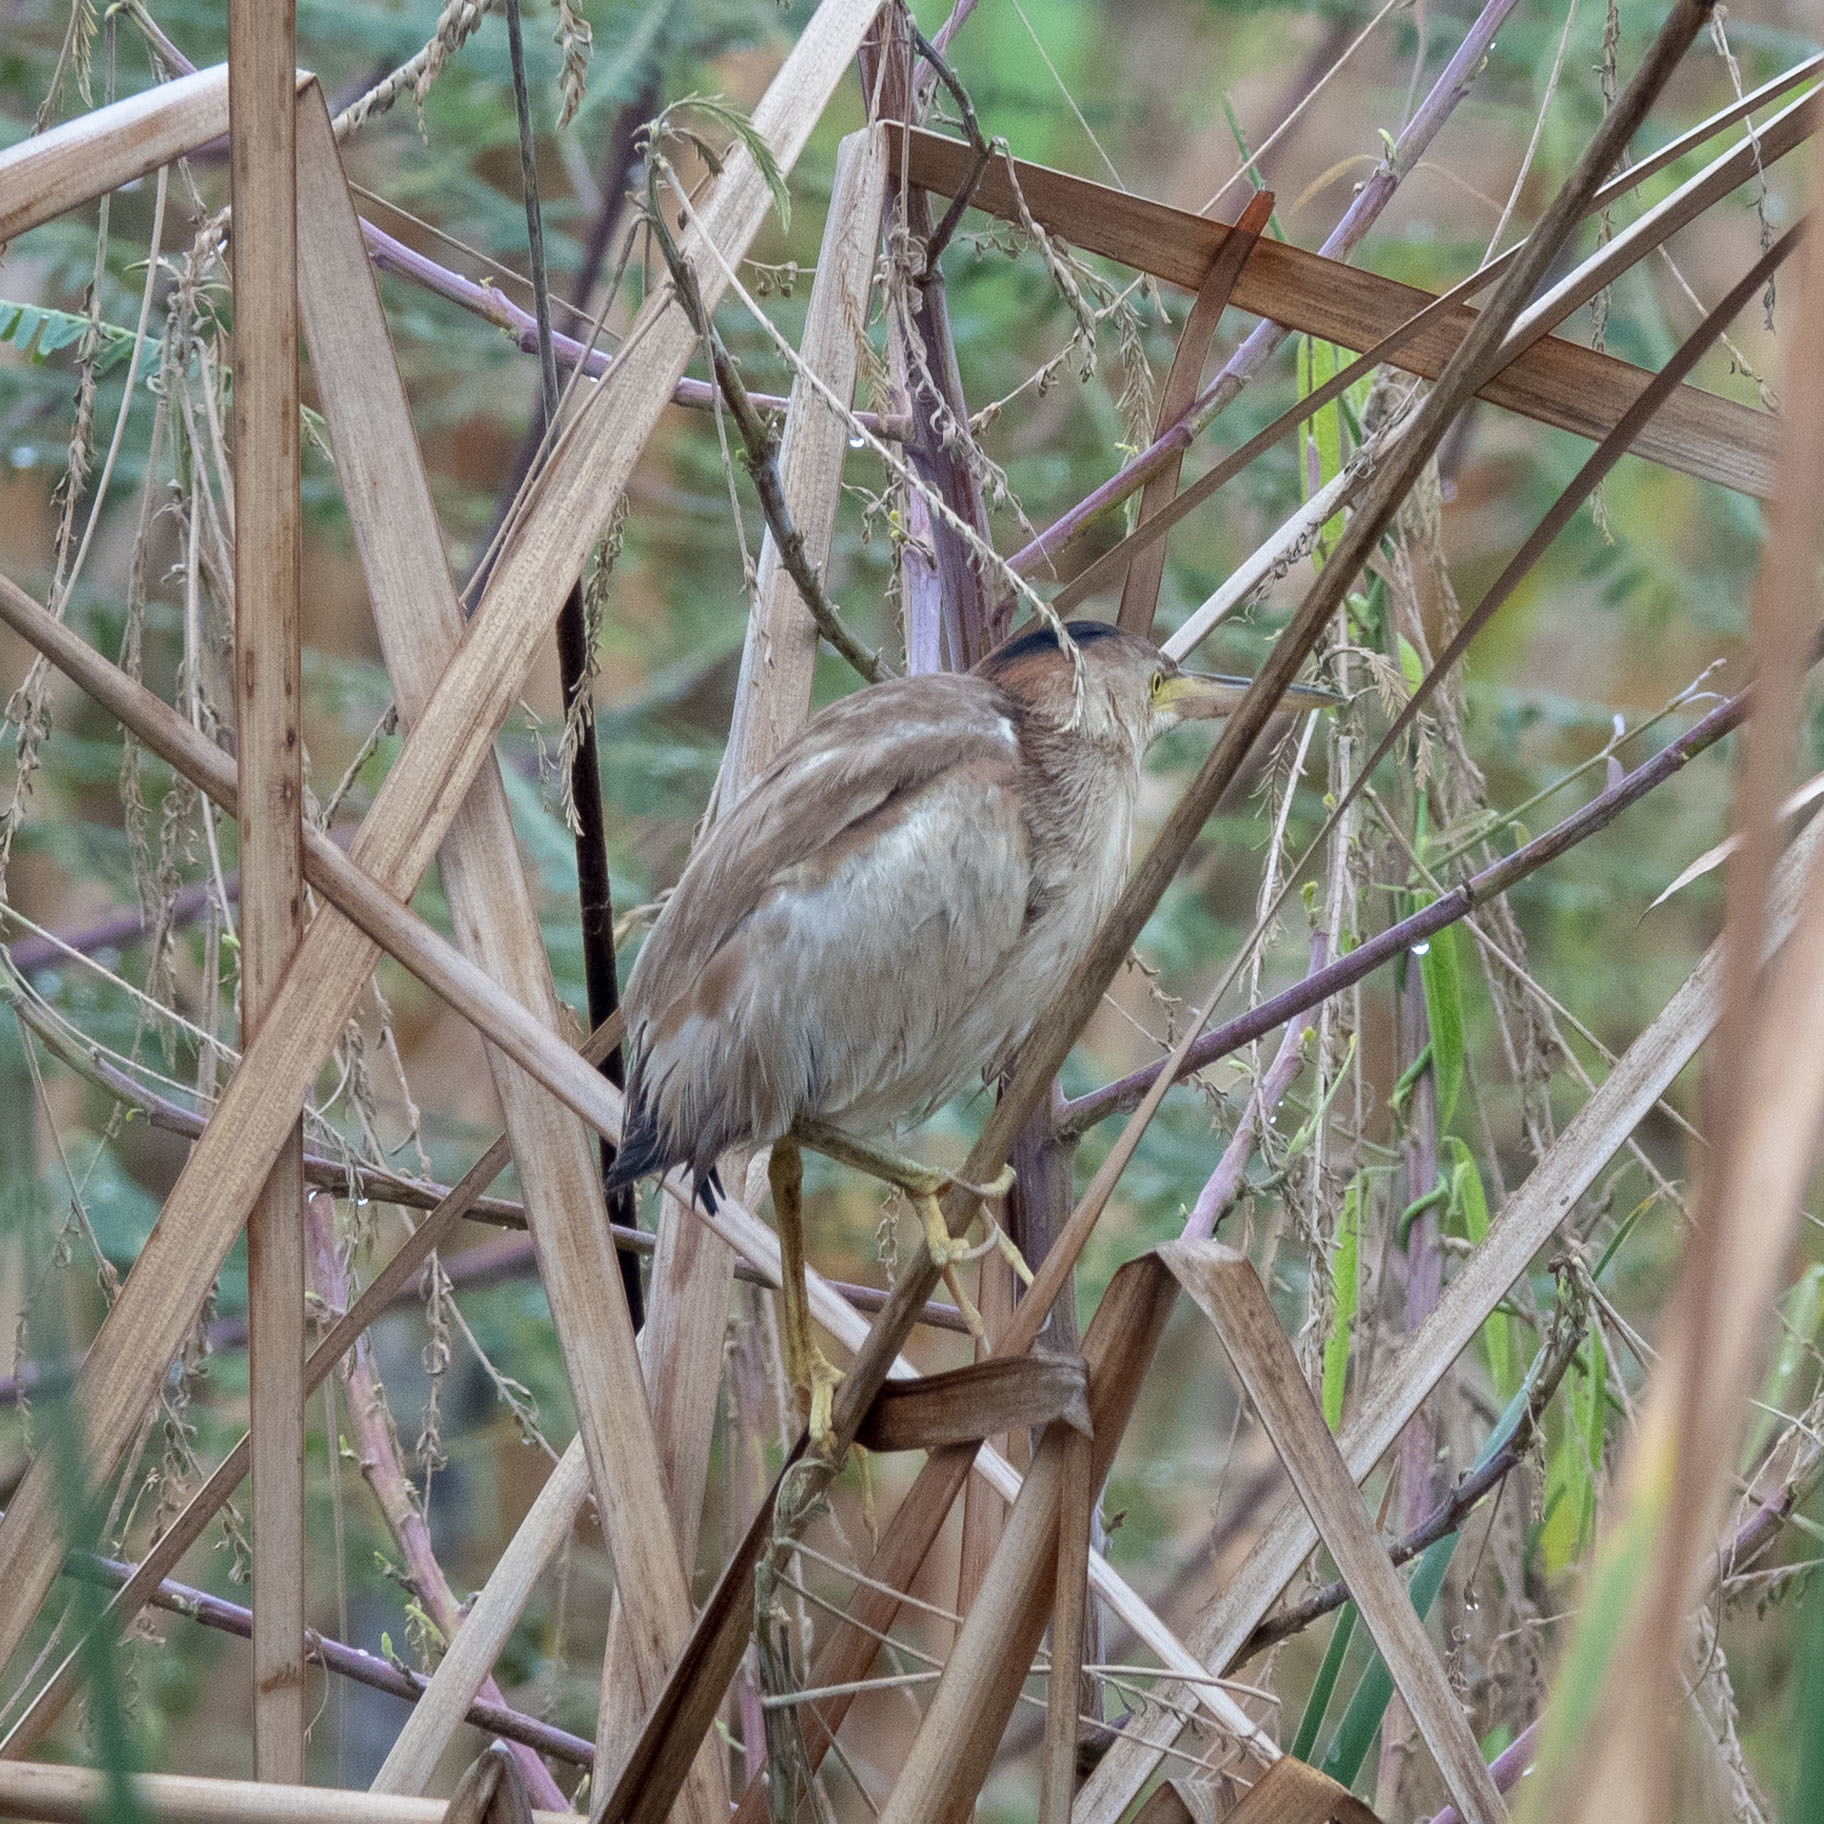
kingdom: Animalia
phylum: Chordata
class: Aves
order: Pelecaniformes
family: Ardeidae
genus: Ixobrychus
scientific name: Ixobrychus sinensis
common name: Yellow bittern
